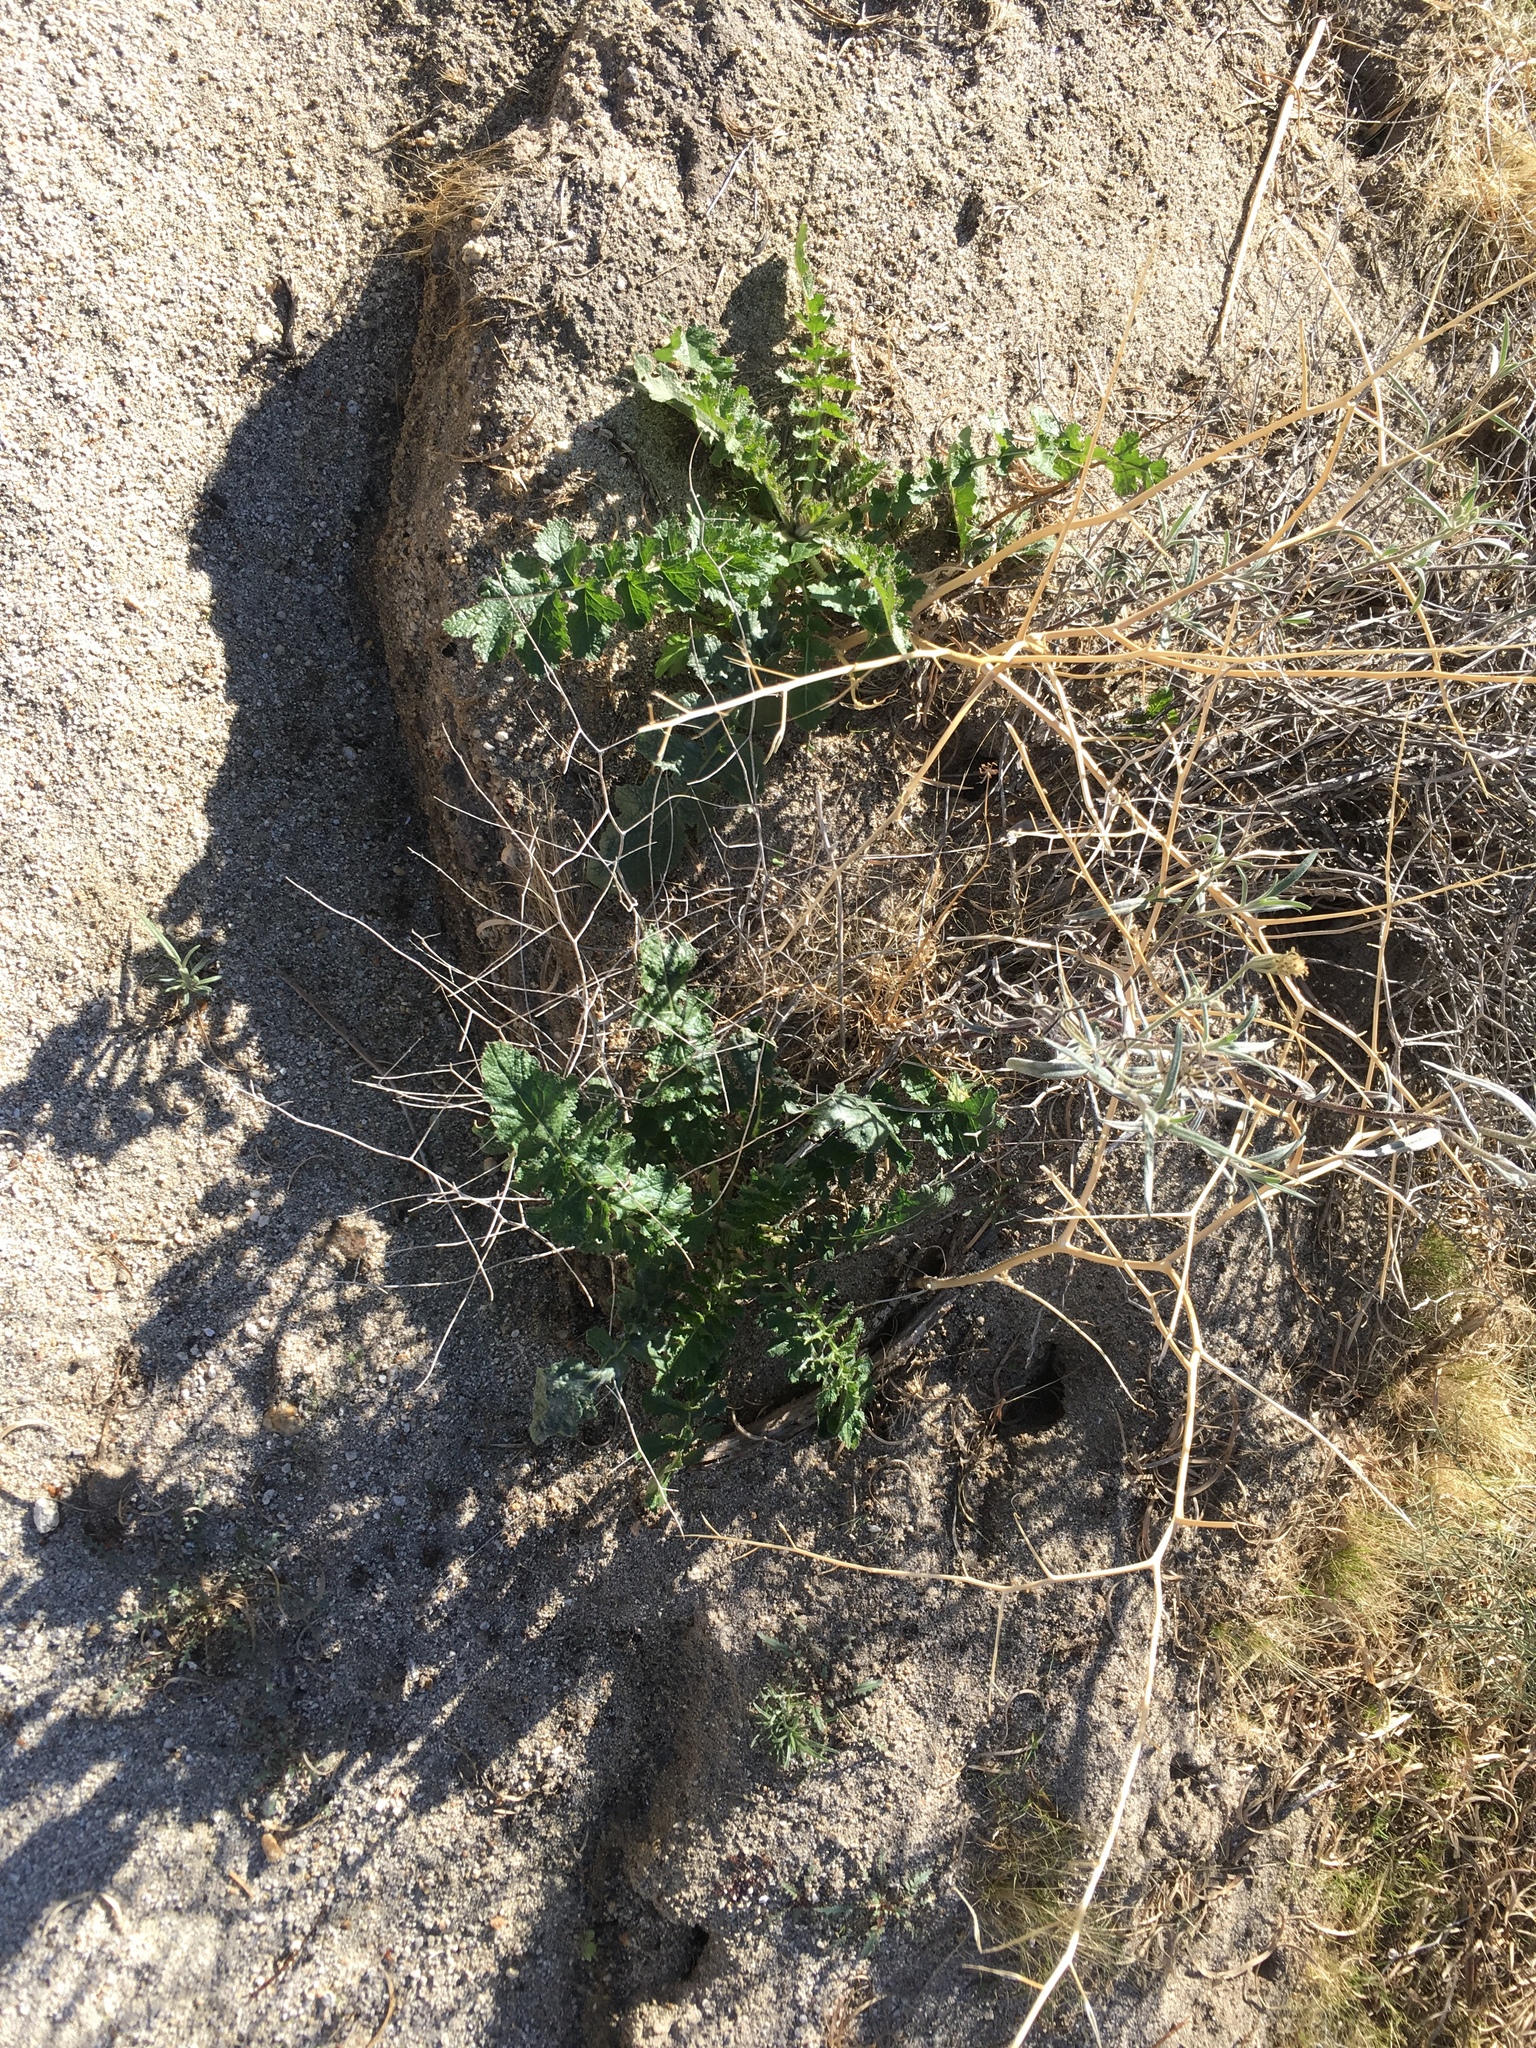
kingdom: Plantae
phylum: Tracheophyta
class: Magnoliopsida
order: Brassicales
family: Brassicaceae
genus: Brassica
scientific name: Brassica tournefortii
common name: Pale cabbage
